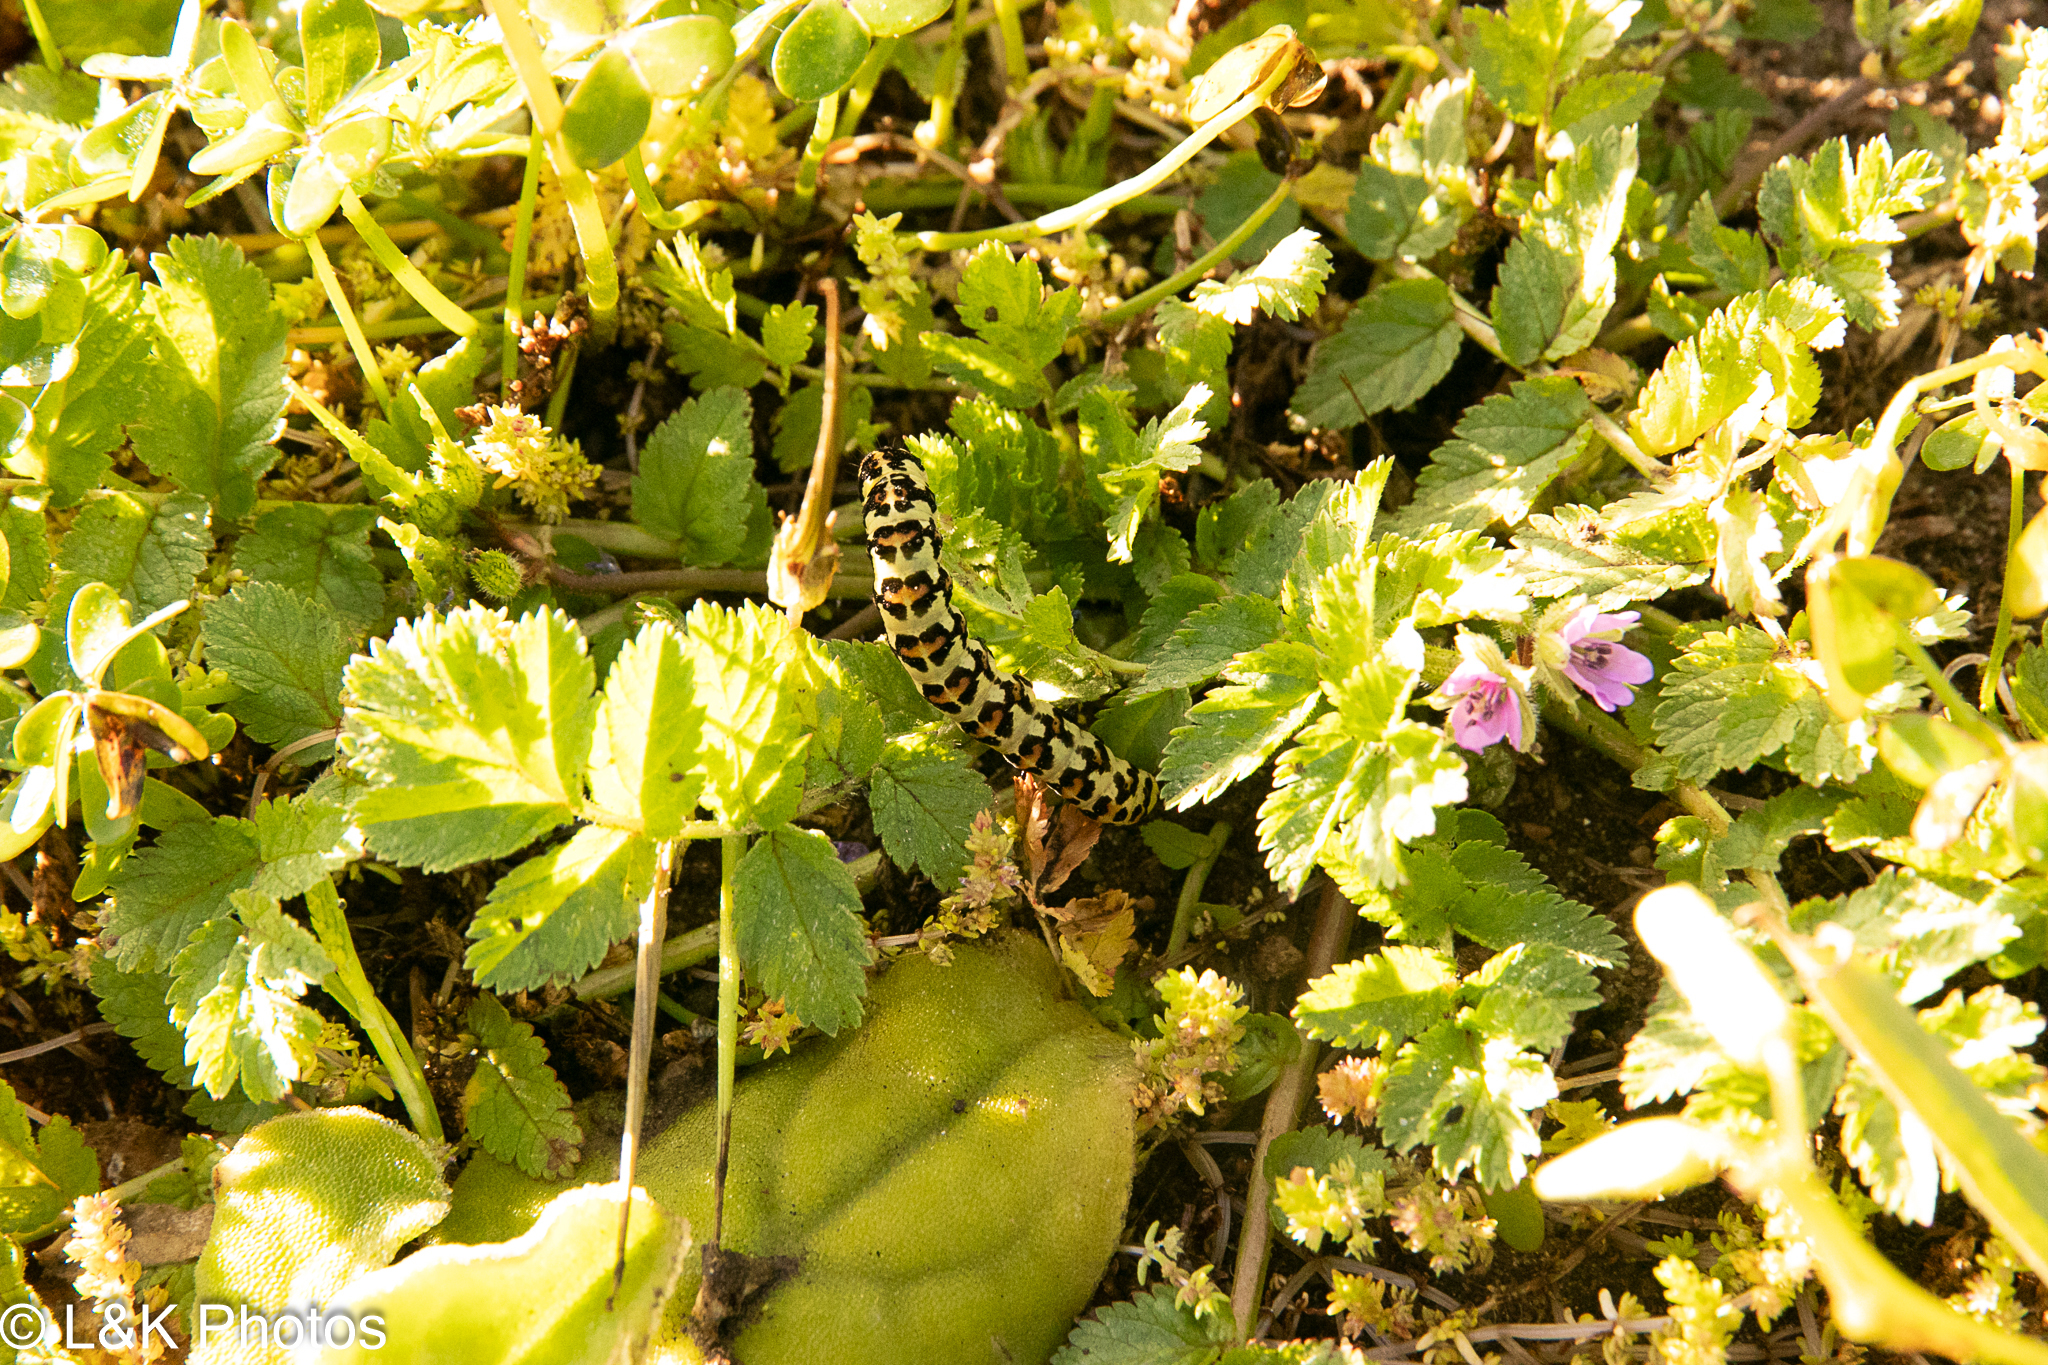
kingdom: Animalia
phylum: Arthropoda
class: Insecta
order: Lepidoptera
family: Noctuidae
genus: Diaphone
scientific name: Diaphone eumela
